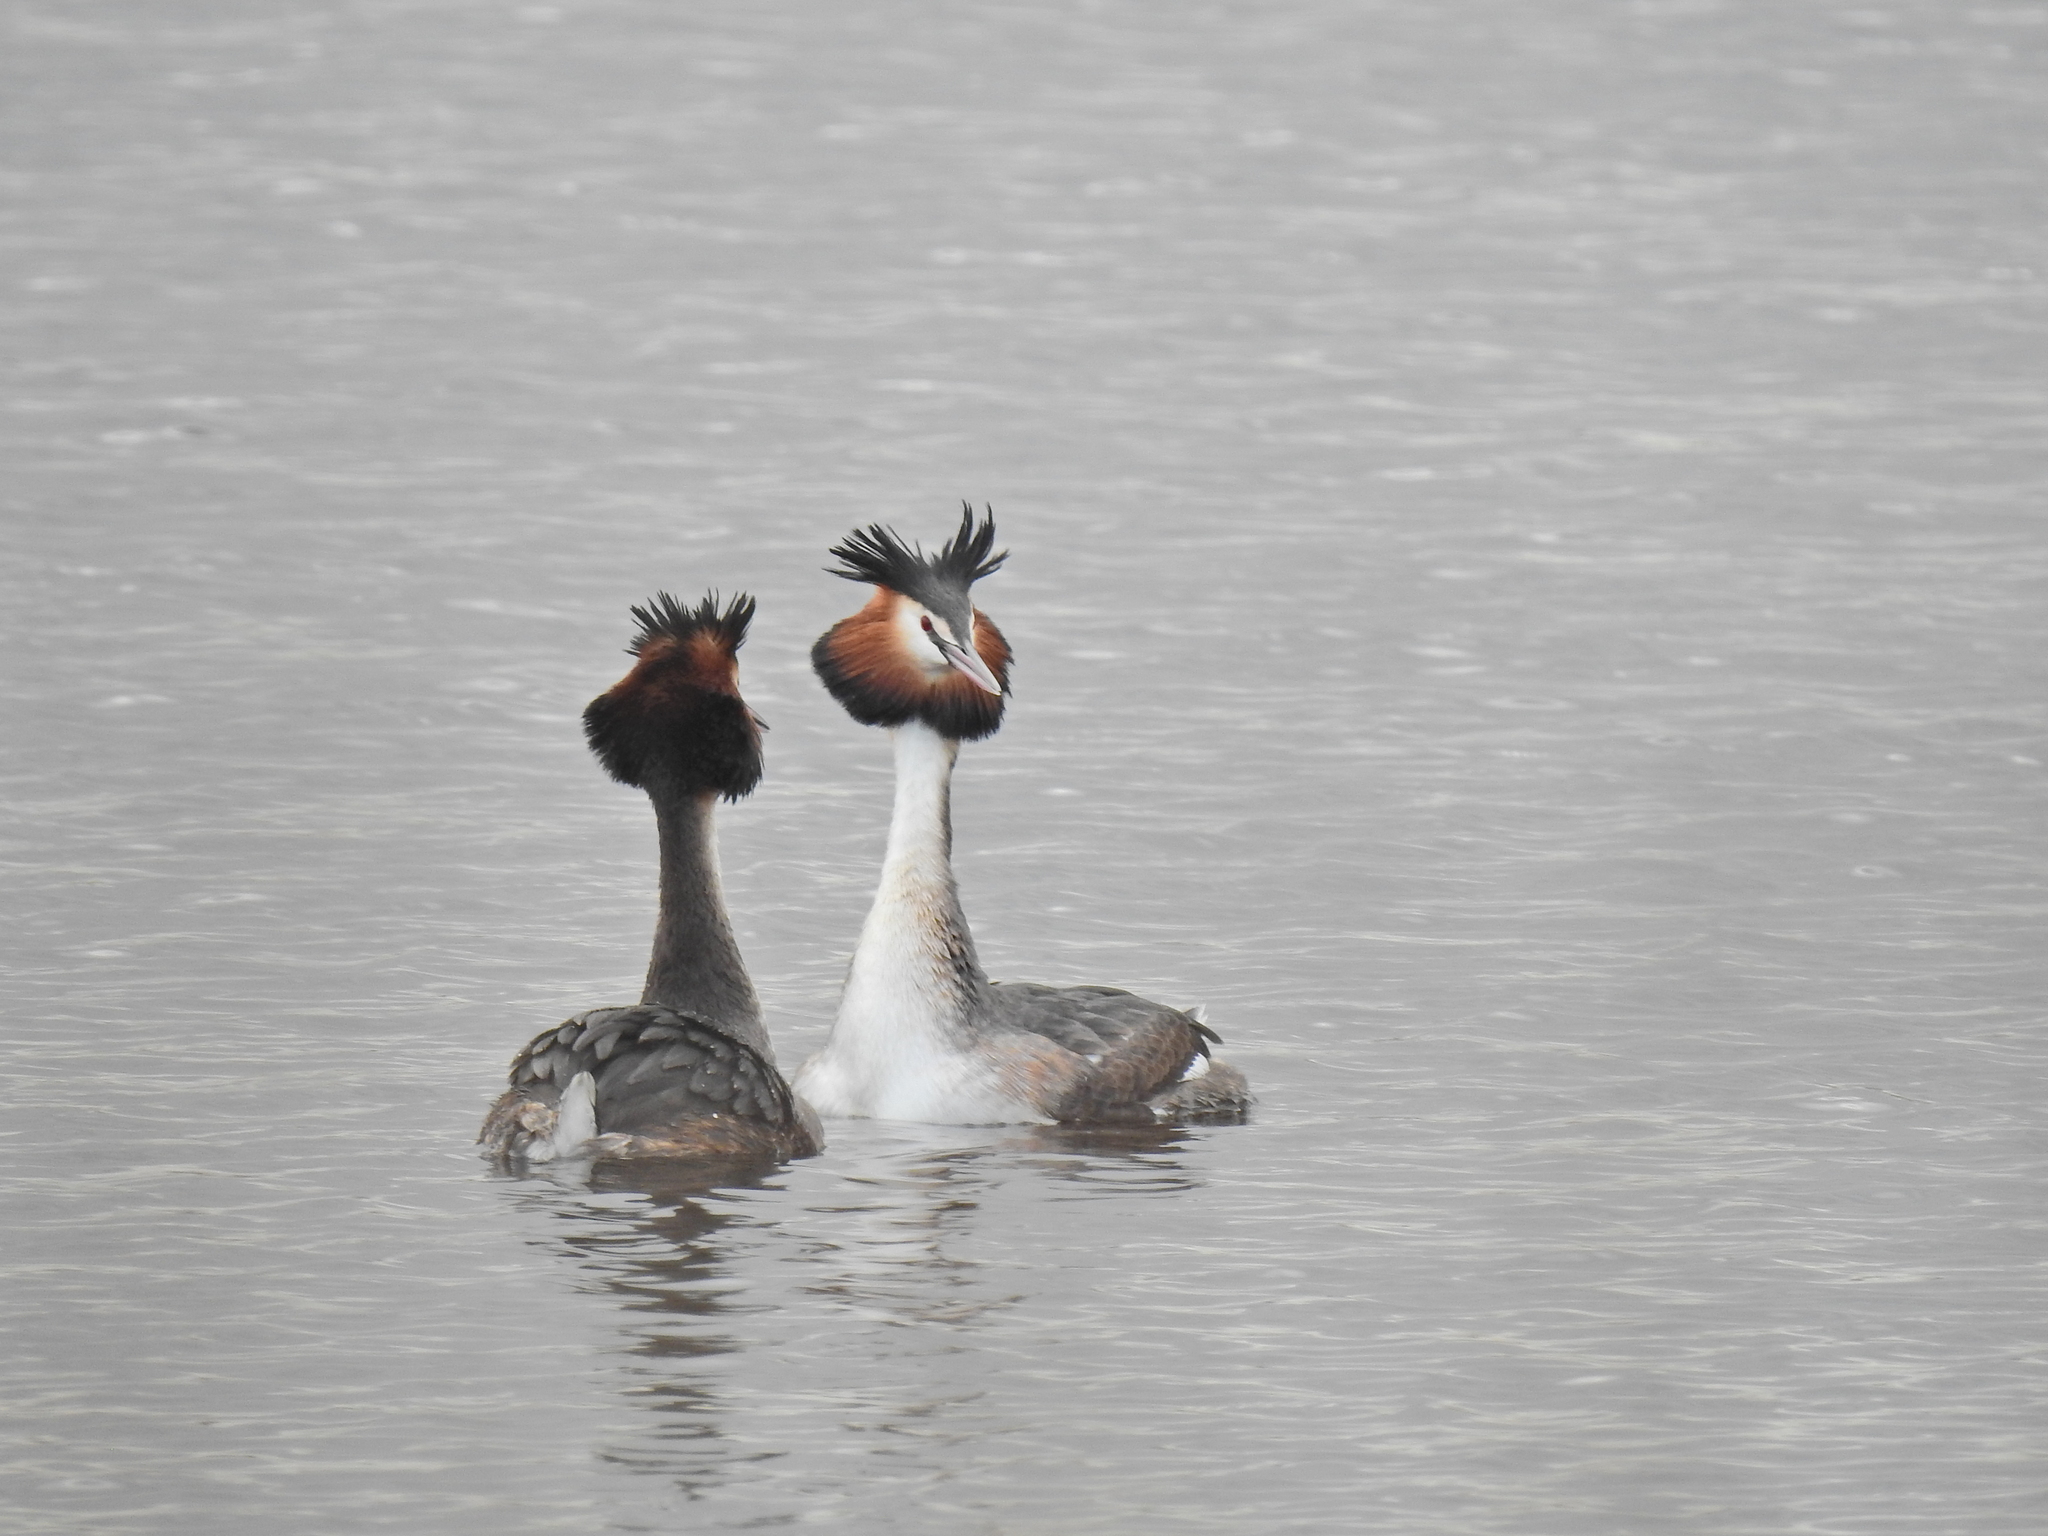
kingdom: Animalia
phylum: Chordata
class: Aves
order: Podicipediformes
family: Podicipedidae
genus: Podiceps
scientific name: Podiceps cristatus
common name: Great crested grebe
